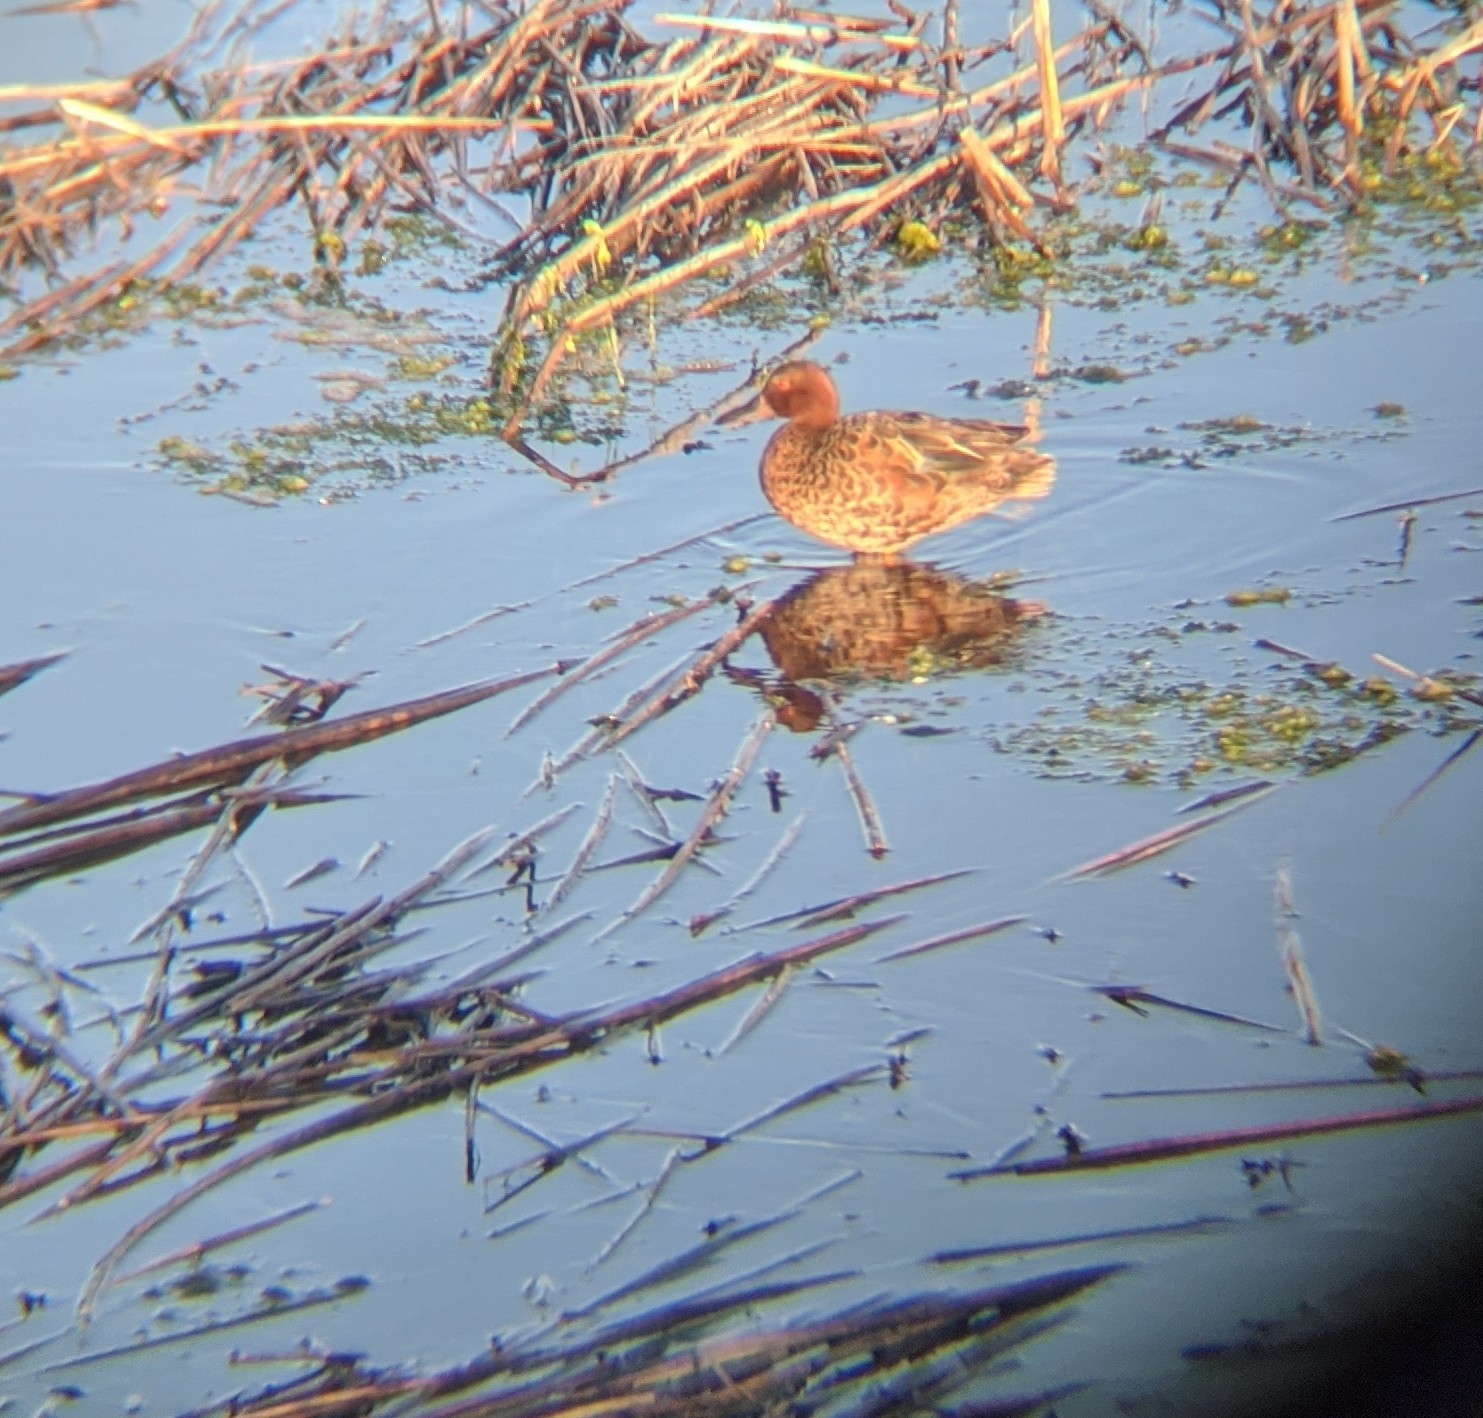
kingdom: Animalia
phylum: Chordata
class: Aves
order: Anseriformes
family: Anatidae
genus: Spatula
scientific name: Spatula cyanoptera
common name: Cinnamon teal
